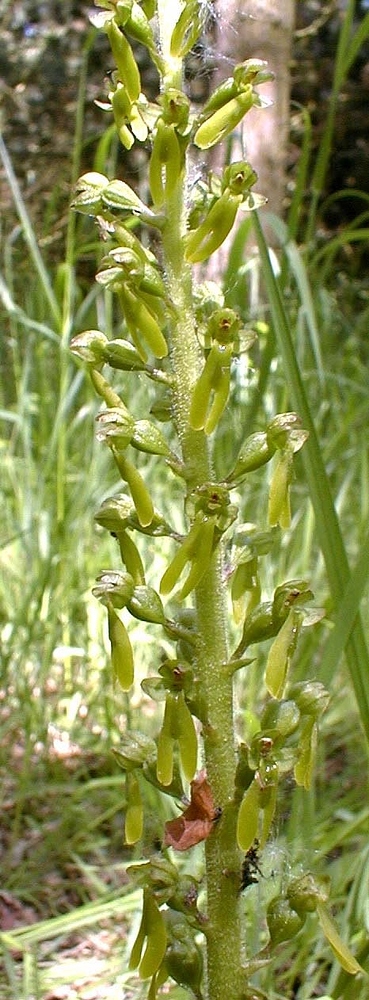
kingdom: Plantae
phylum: Tracheophyta
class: Liliopsida
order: Asparagales
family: Orchidaceae
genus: Neottia
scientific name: Neottia ovata
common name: Common twayblade
